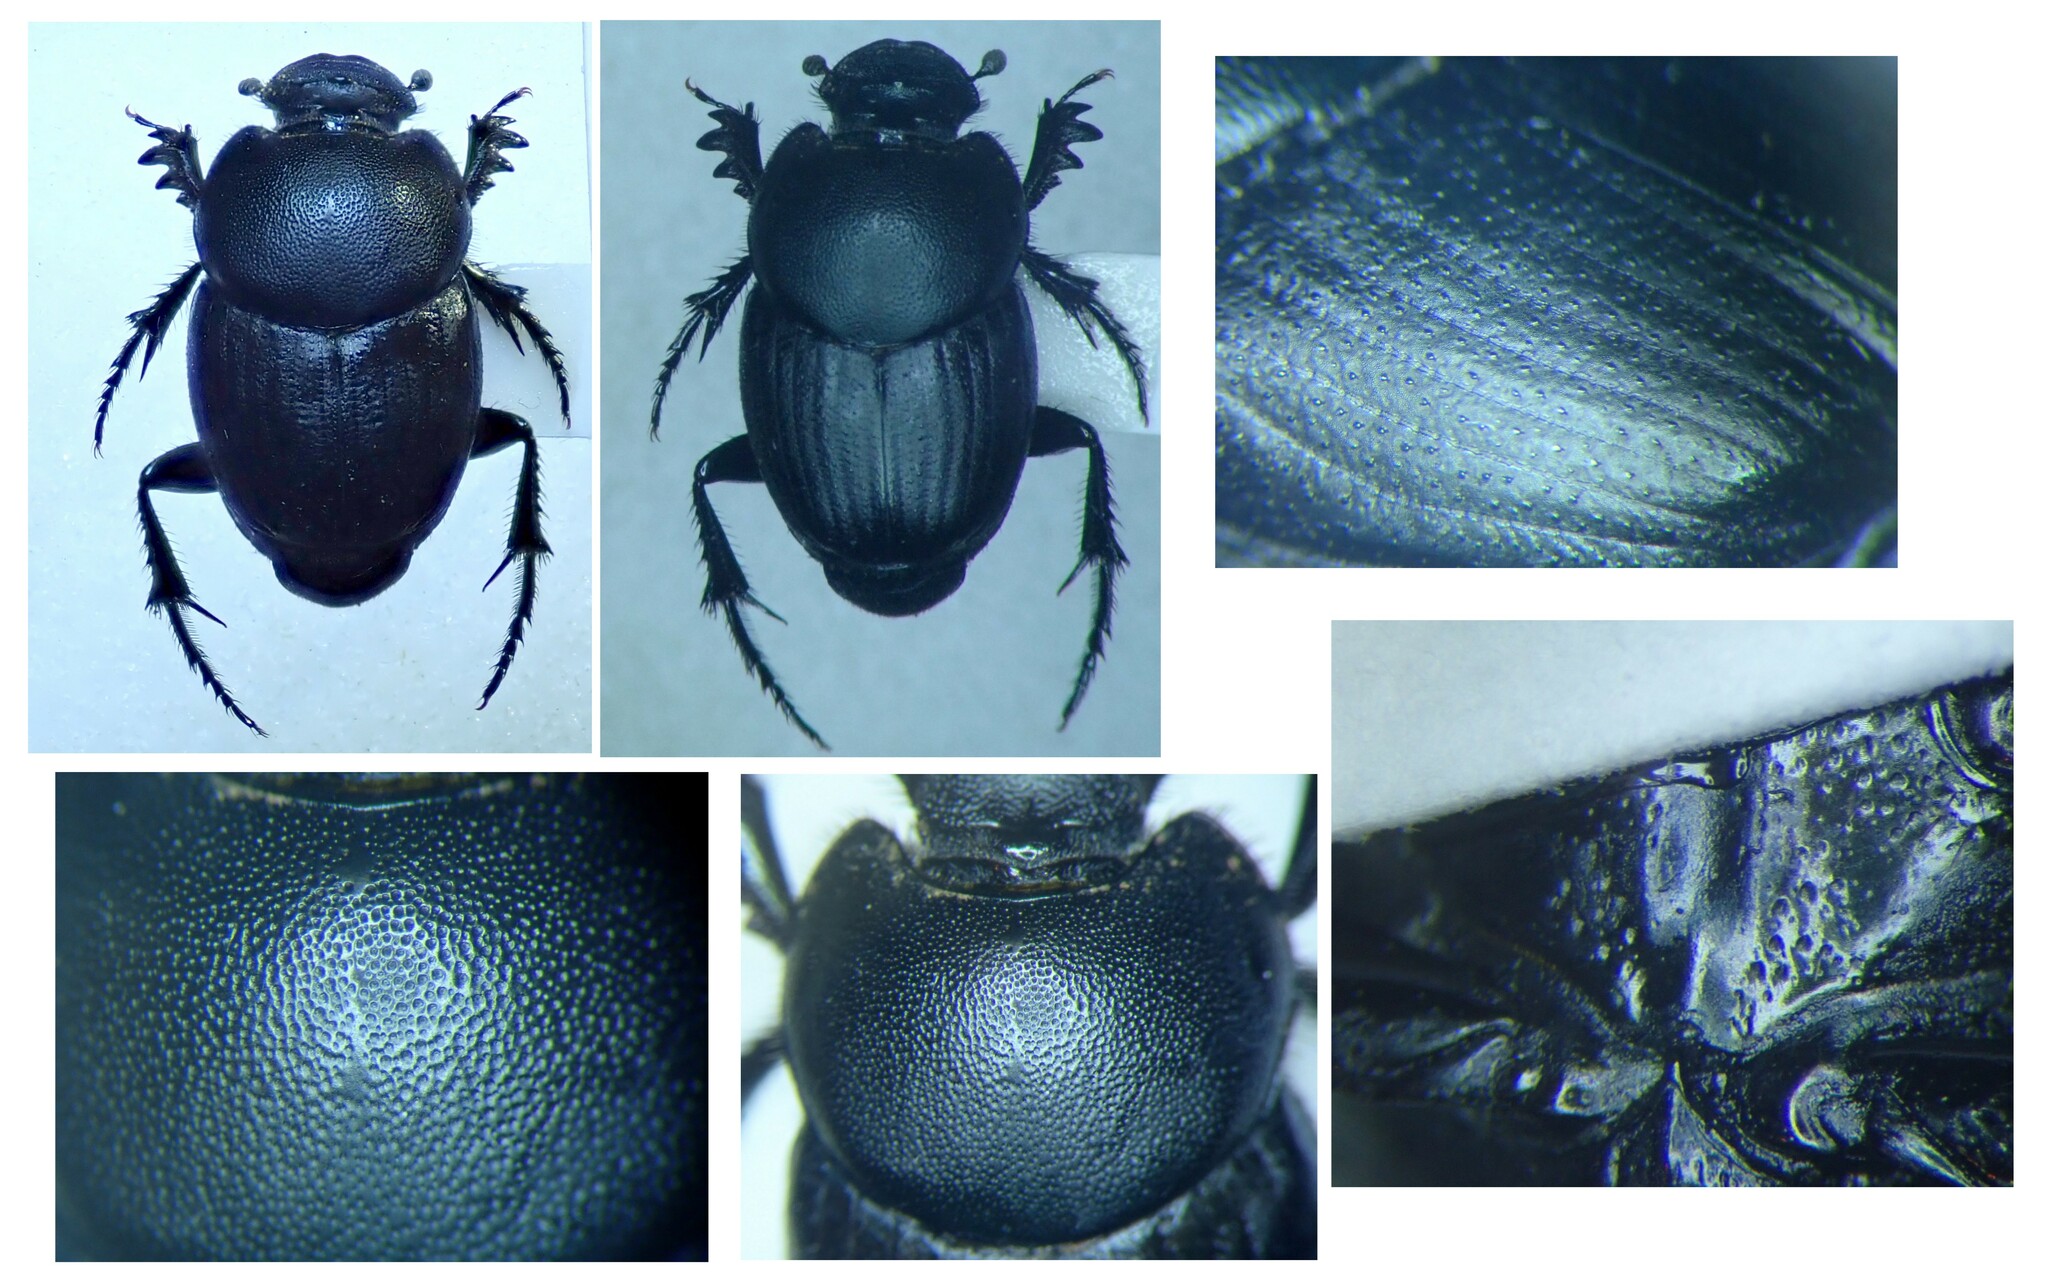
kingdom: Animalia
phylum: Arthropoda
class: Insecta
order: Coleoptera
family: Scarabaeidae
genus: Euonthophagus
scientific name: Euonthophagus amyntas
